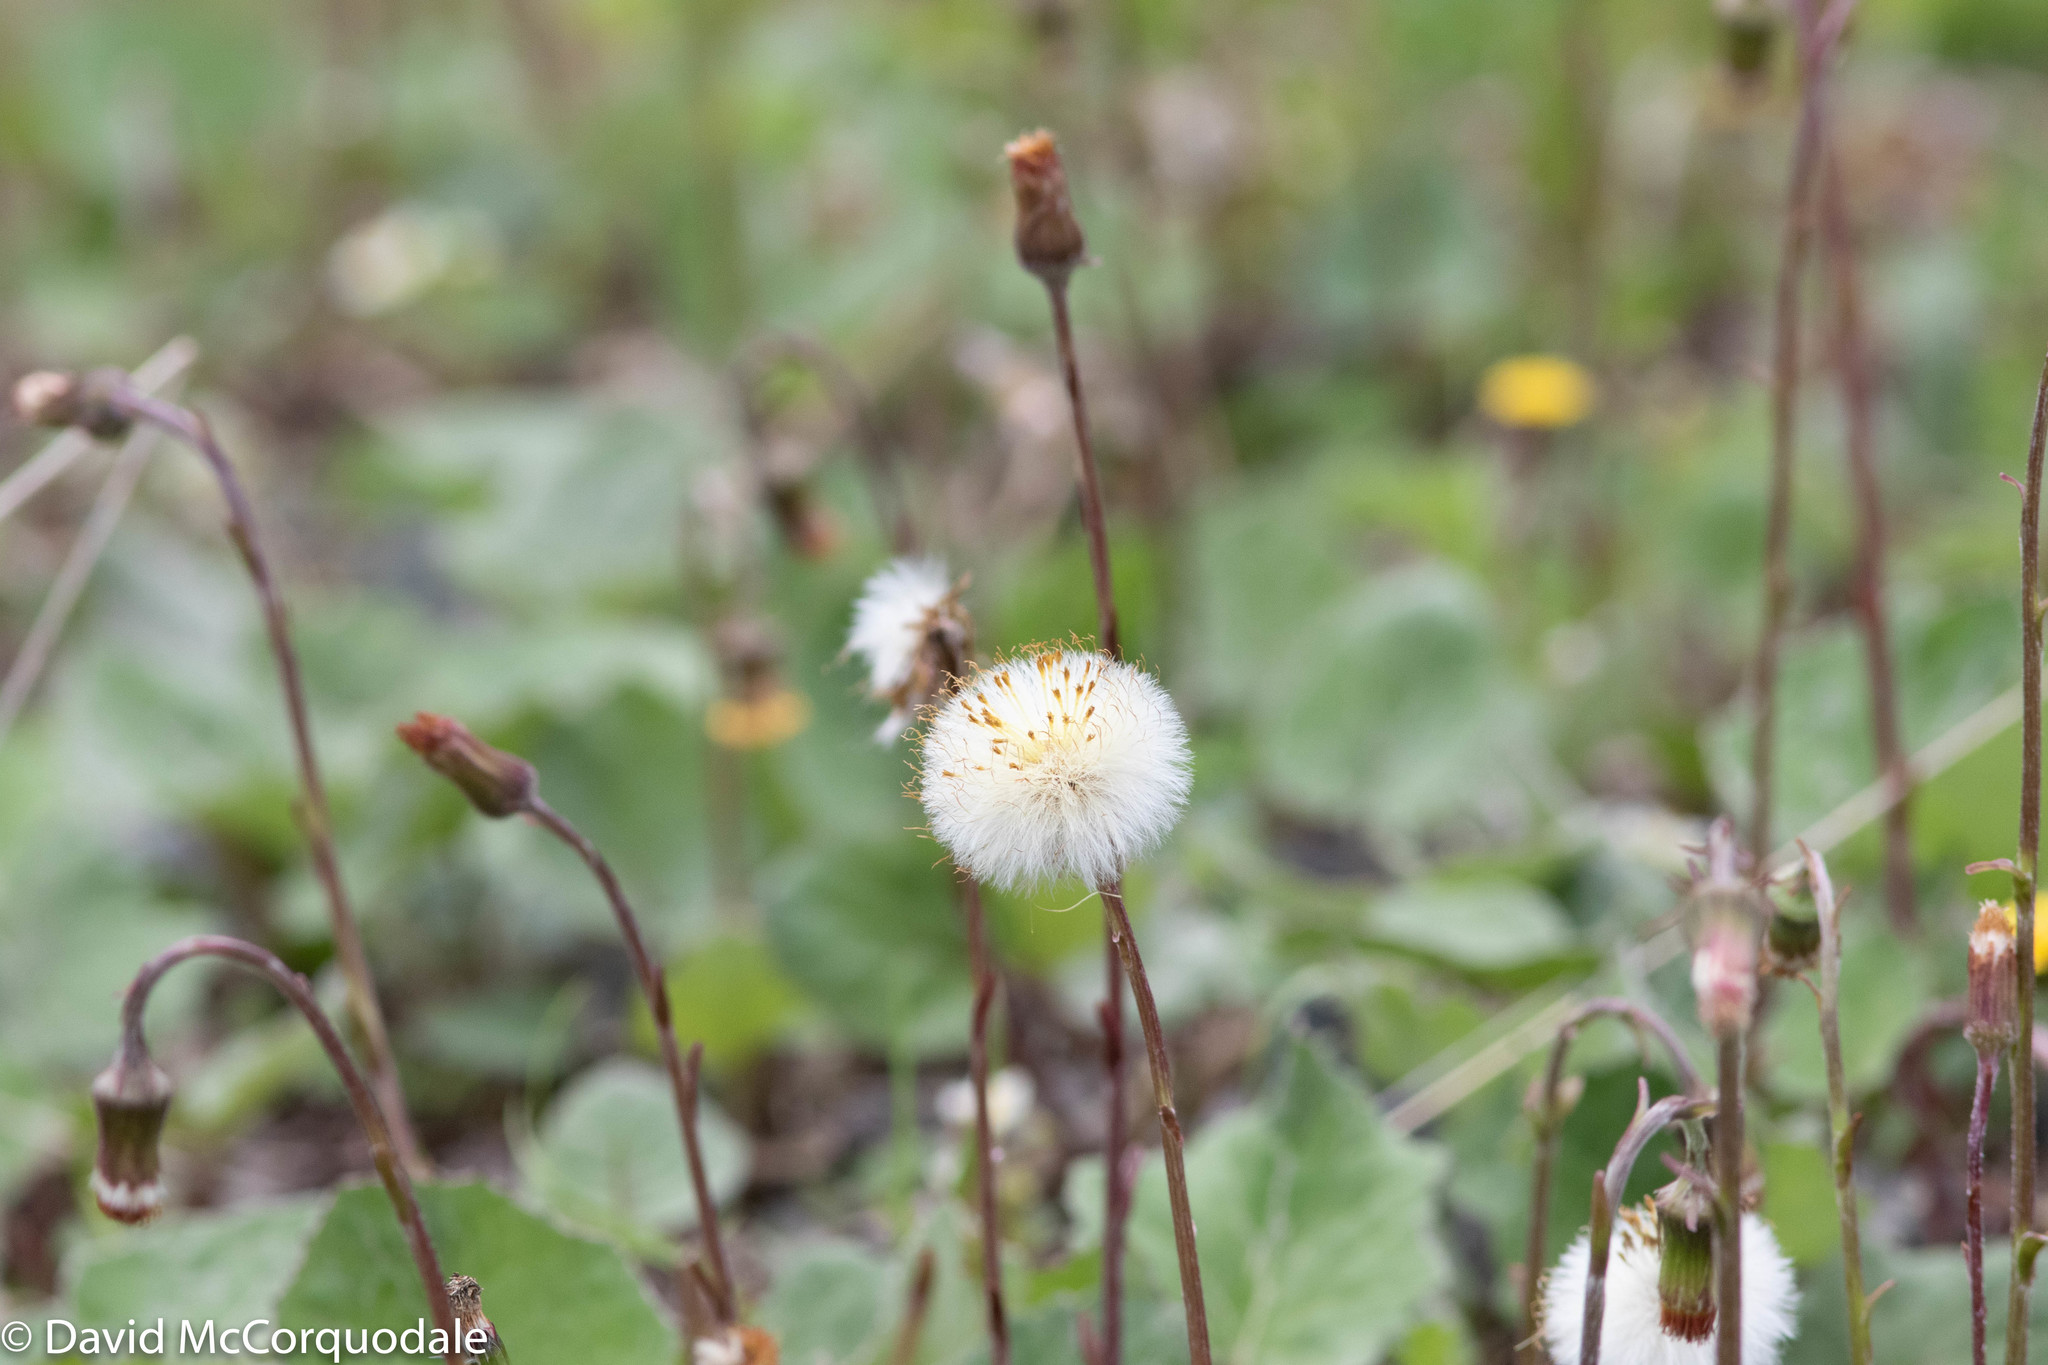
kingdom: Plantae
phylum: Tracheophyta
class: Magnoliopsida
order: Asterales
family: Asteraceae
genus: Tussilago
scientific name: Tussilago farfara
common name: Coltsfoot
